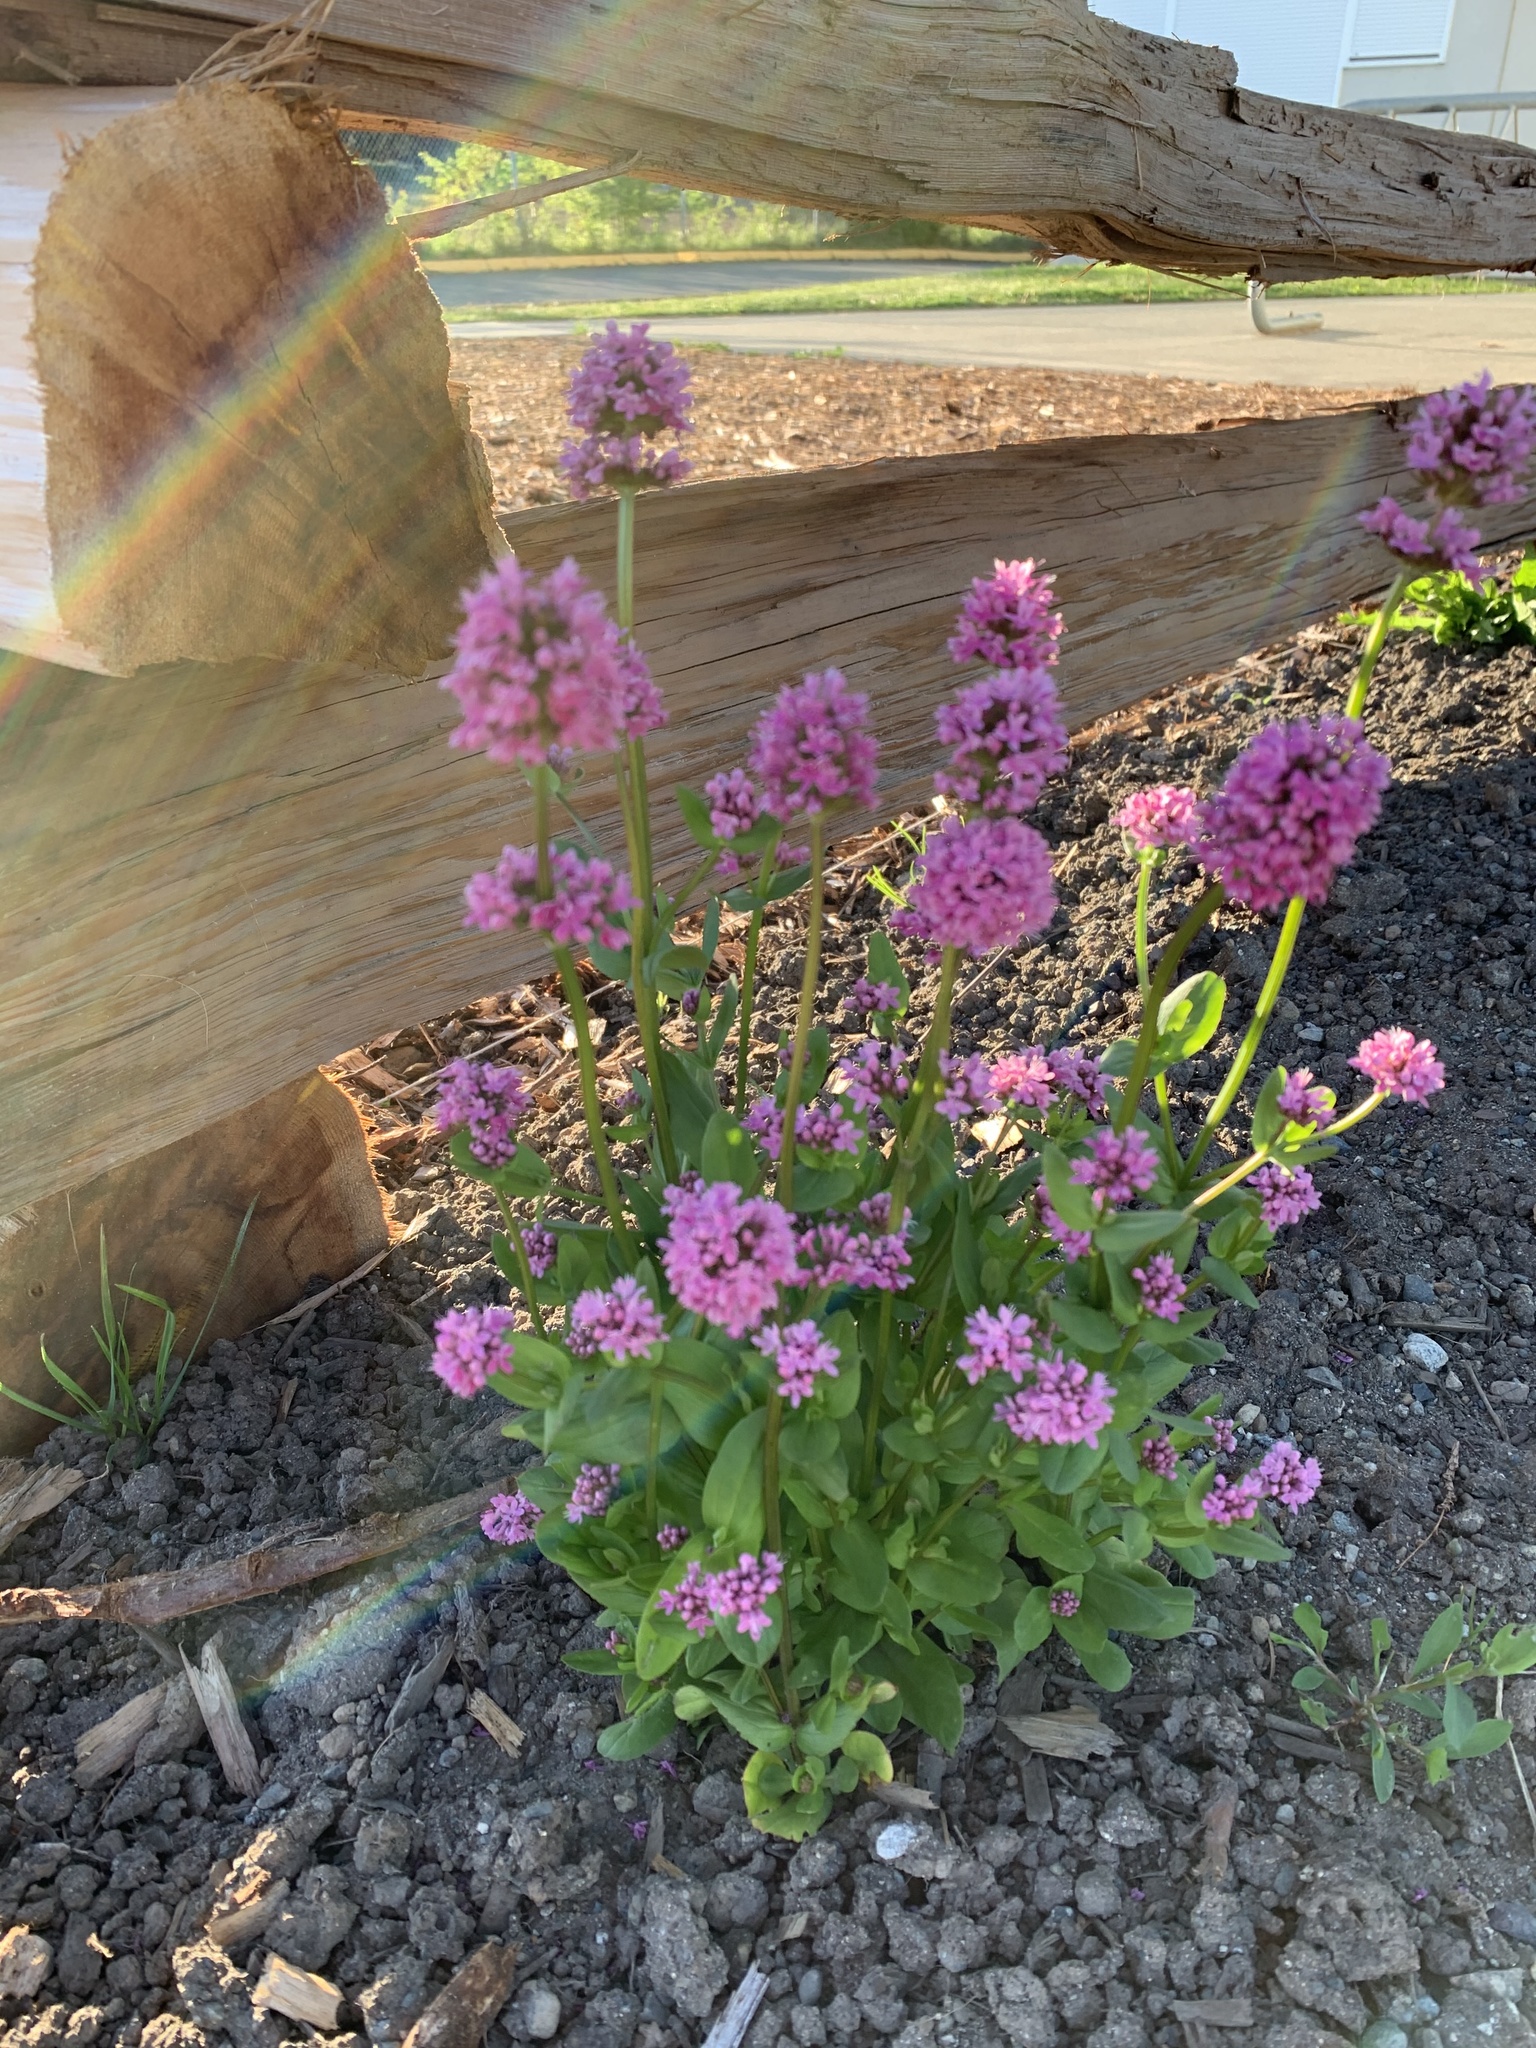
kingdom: Plantae
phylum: Tracheophyta
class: Magnoliopsida
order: Dipsacales
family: Caprifoliaceae
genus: Plectritis
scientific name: Plectritis congesta
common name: Pink plectritis
